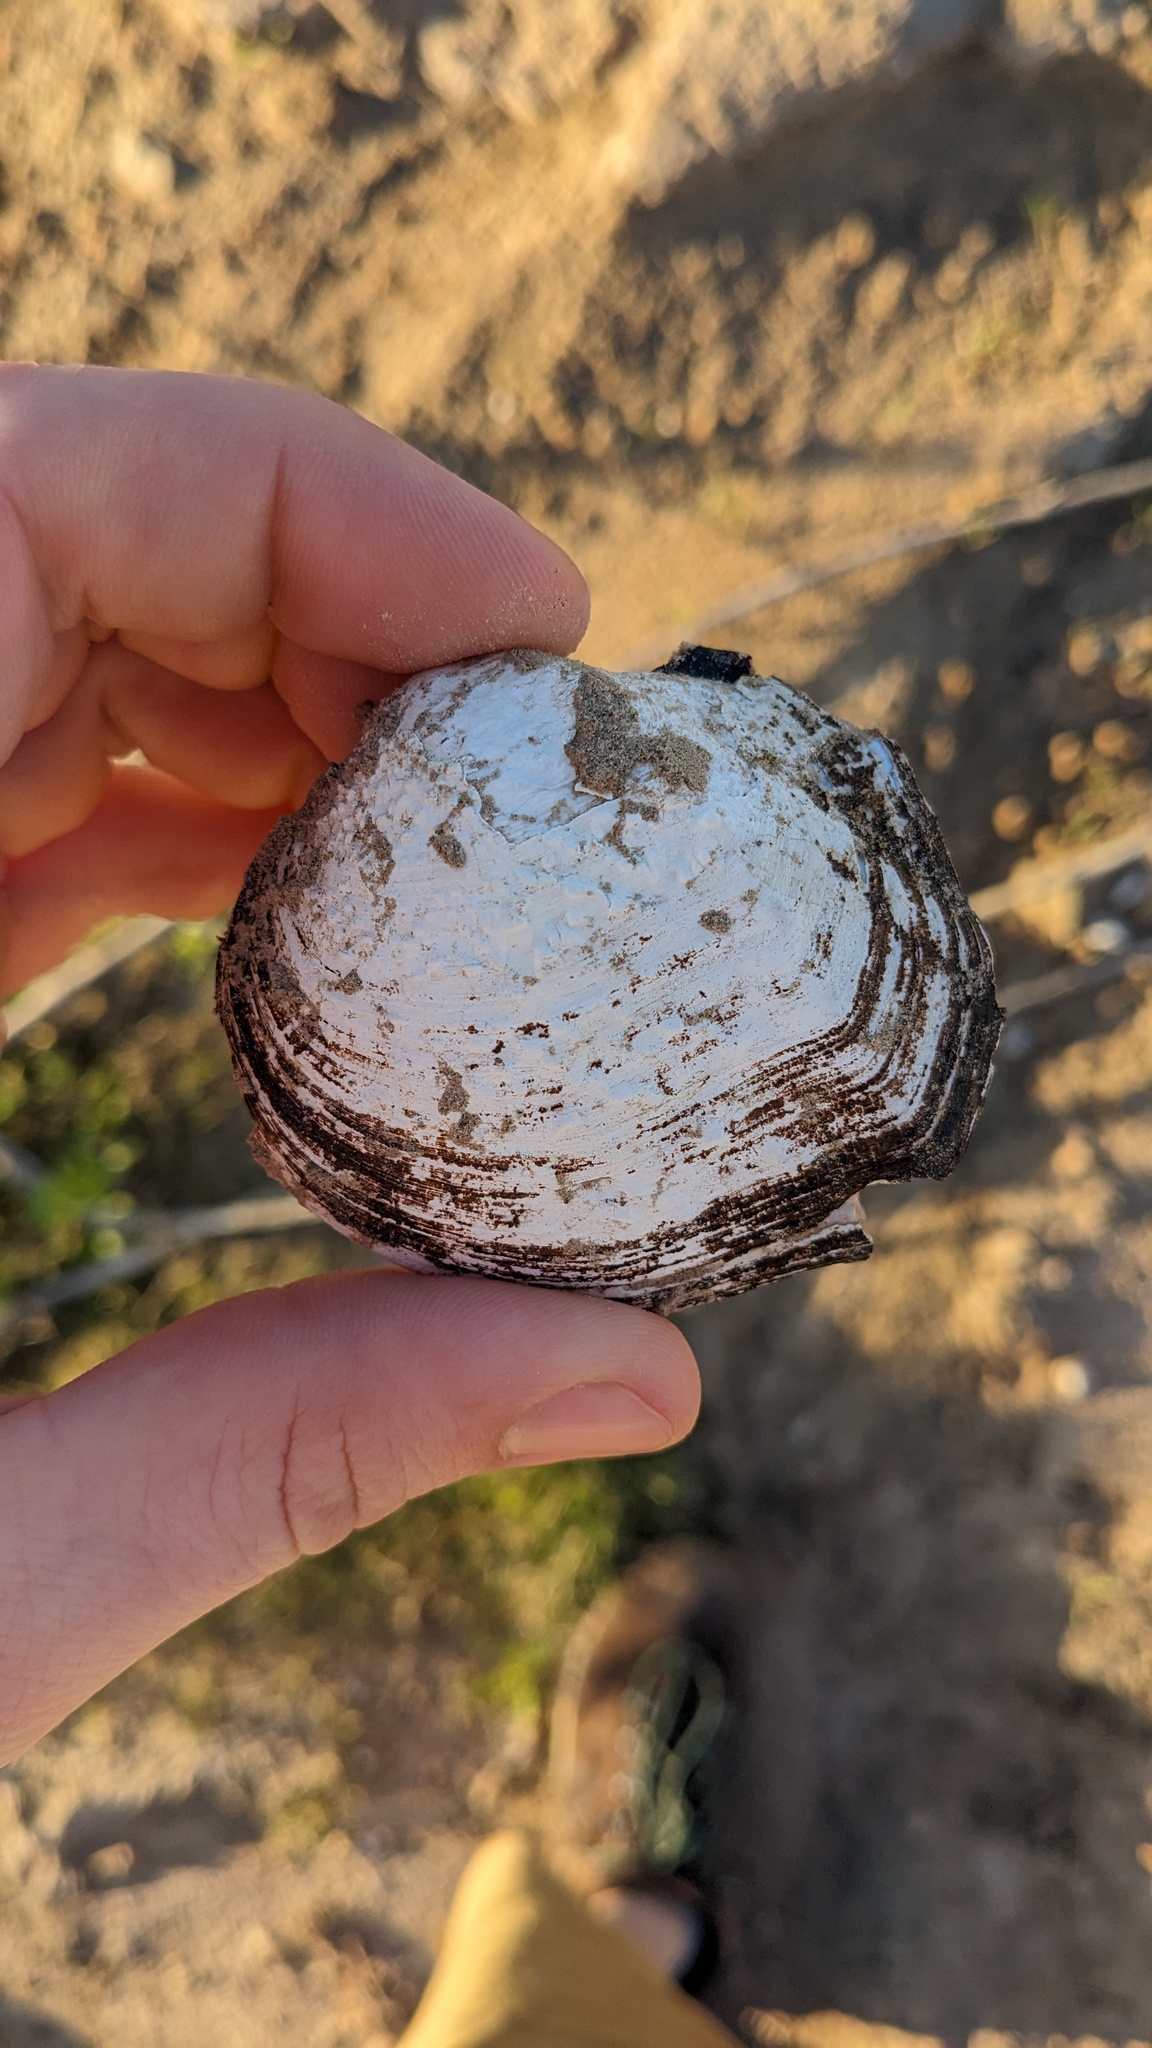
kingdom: Animalia
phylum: Mollusca
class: Bivalvia
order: Unionida
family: Unionidae
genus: Quadrula
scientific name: Quadrula quadrula
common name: Mapleleaf
